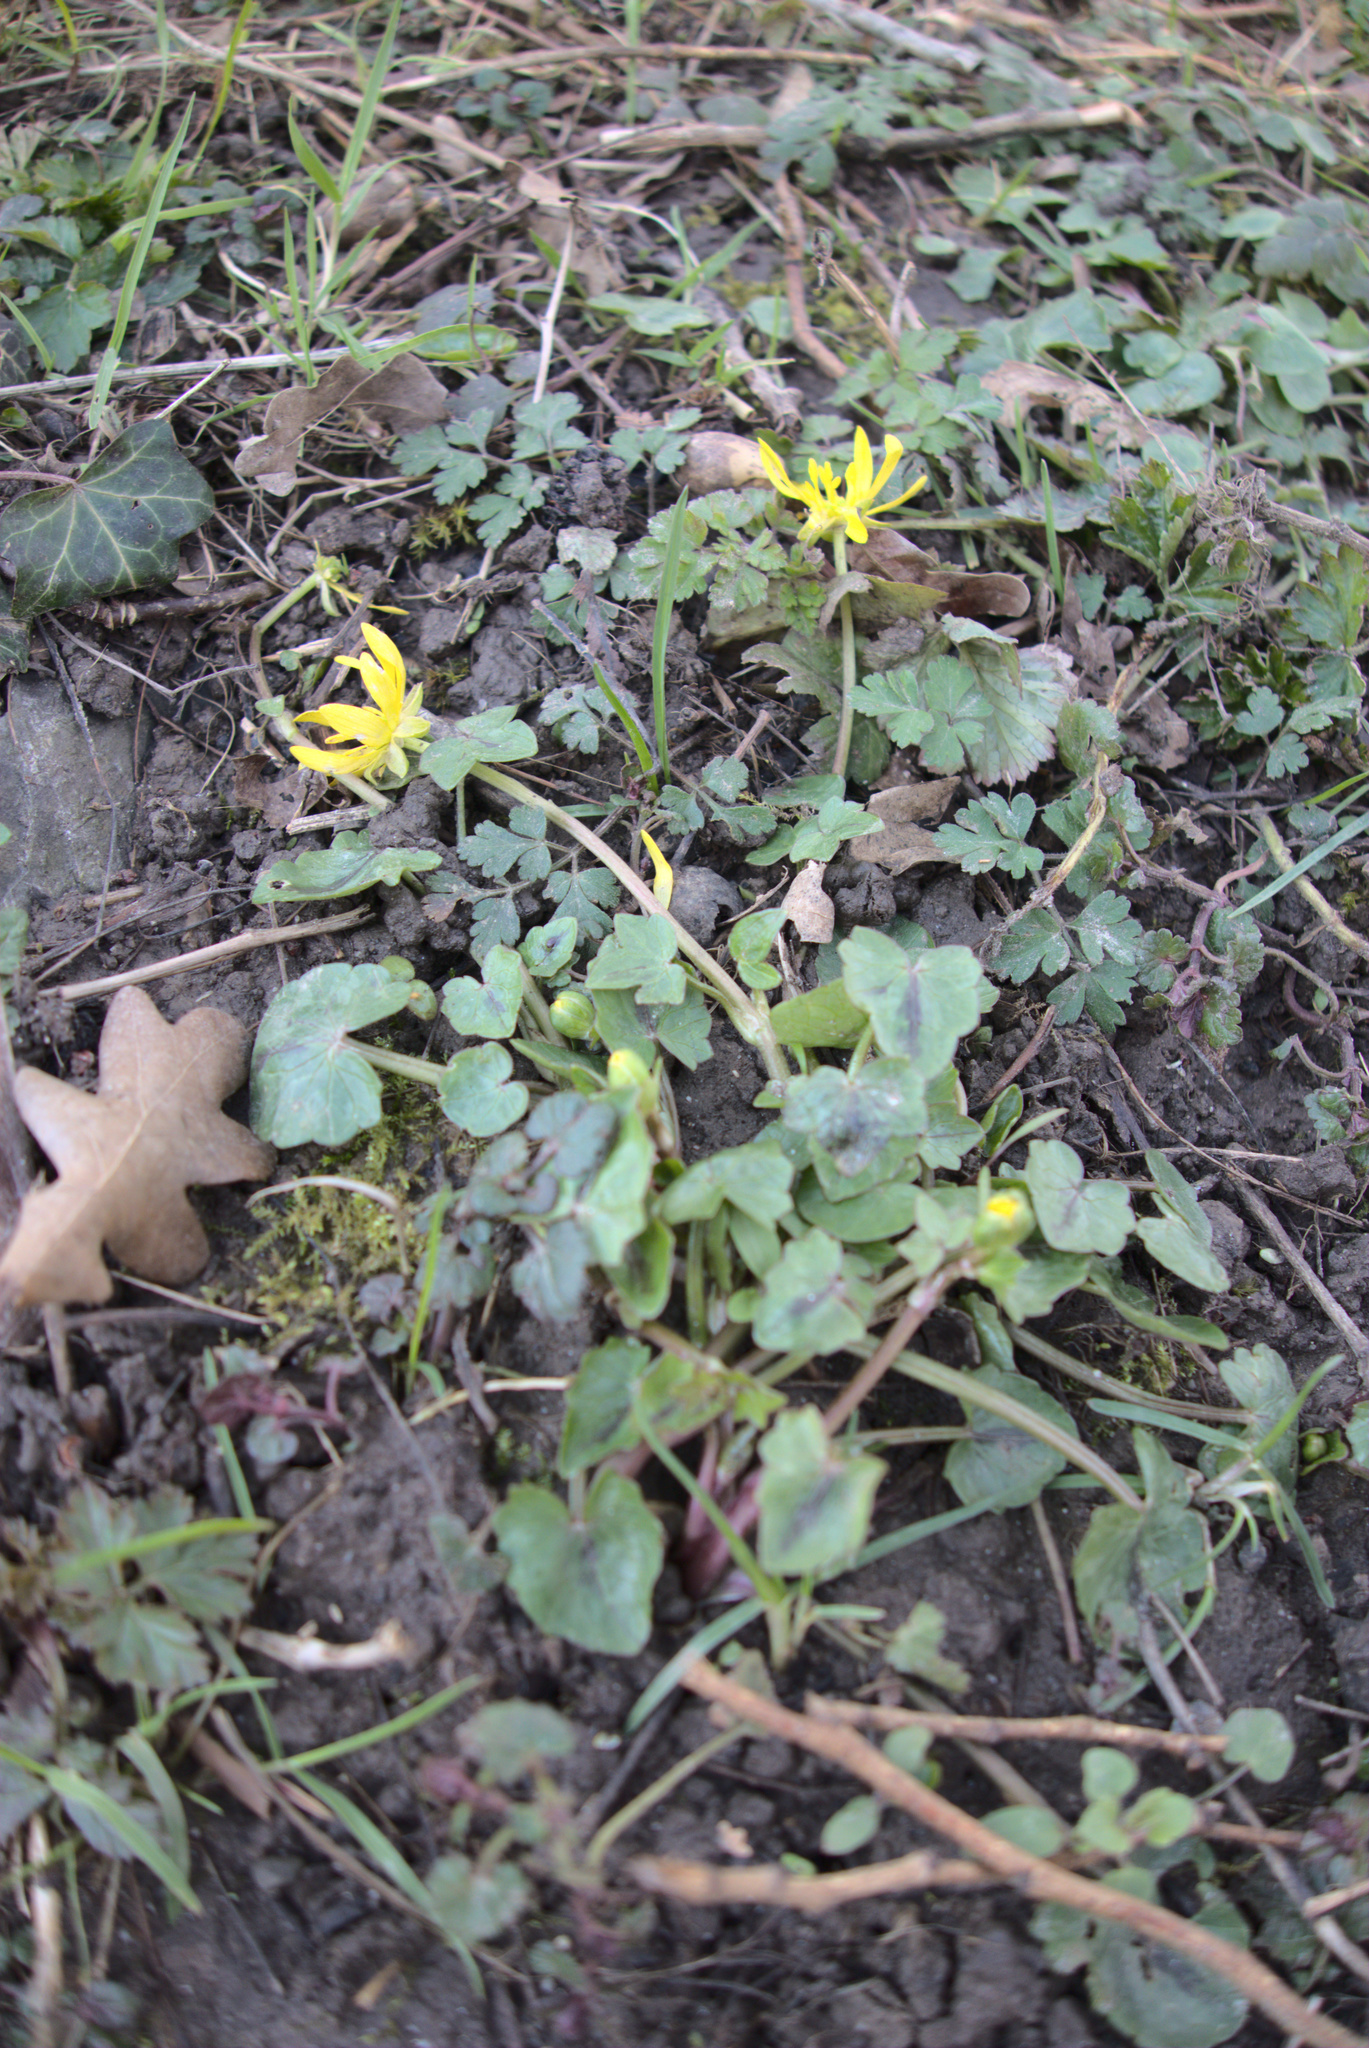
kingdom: Plantae
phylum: Tracheophyta
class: Magnoliopsida
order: Ranunculales
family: Ranunculaceae
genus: Ficaria
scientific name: Ficaria verna
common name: Lesser celandine
